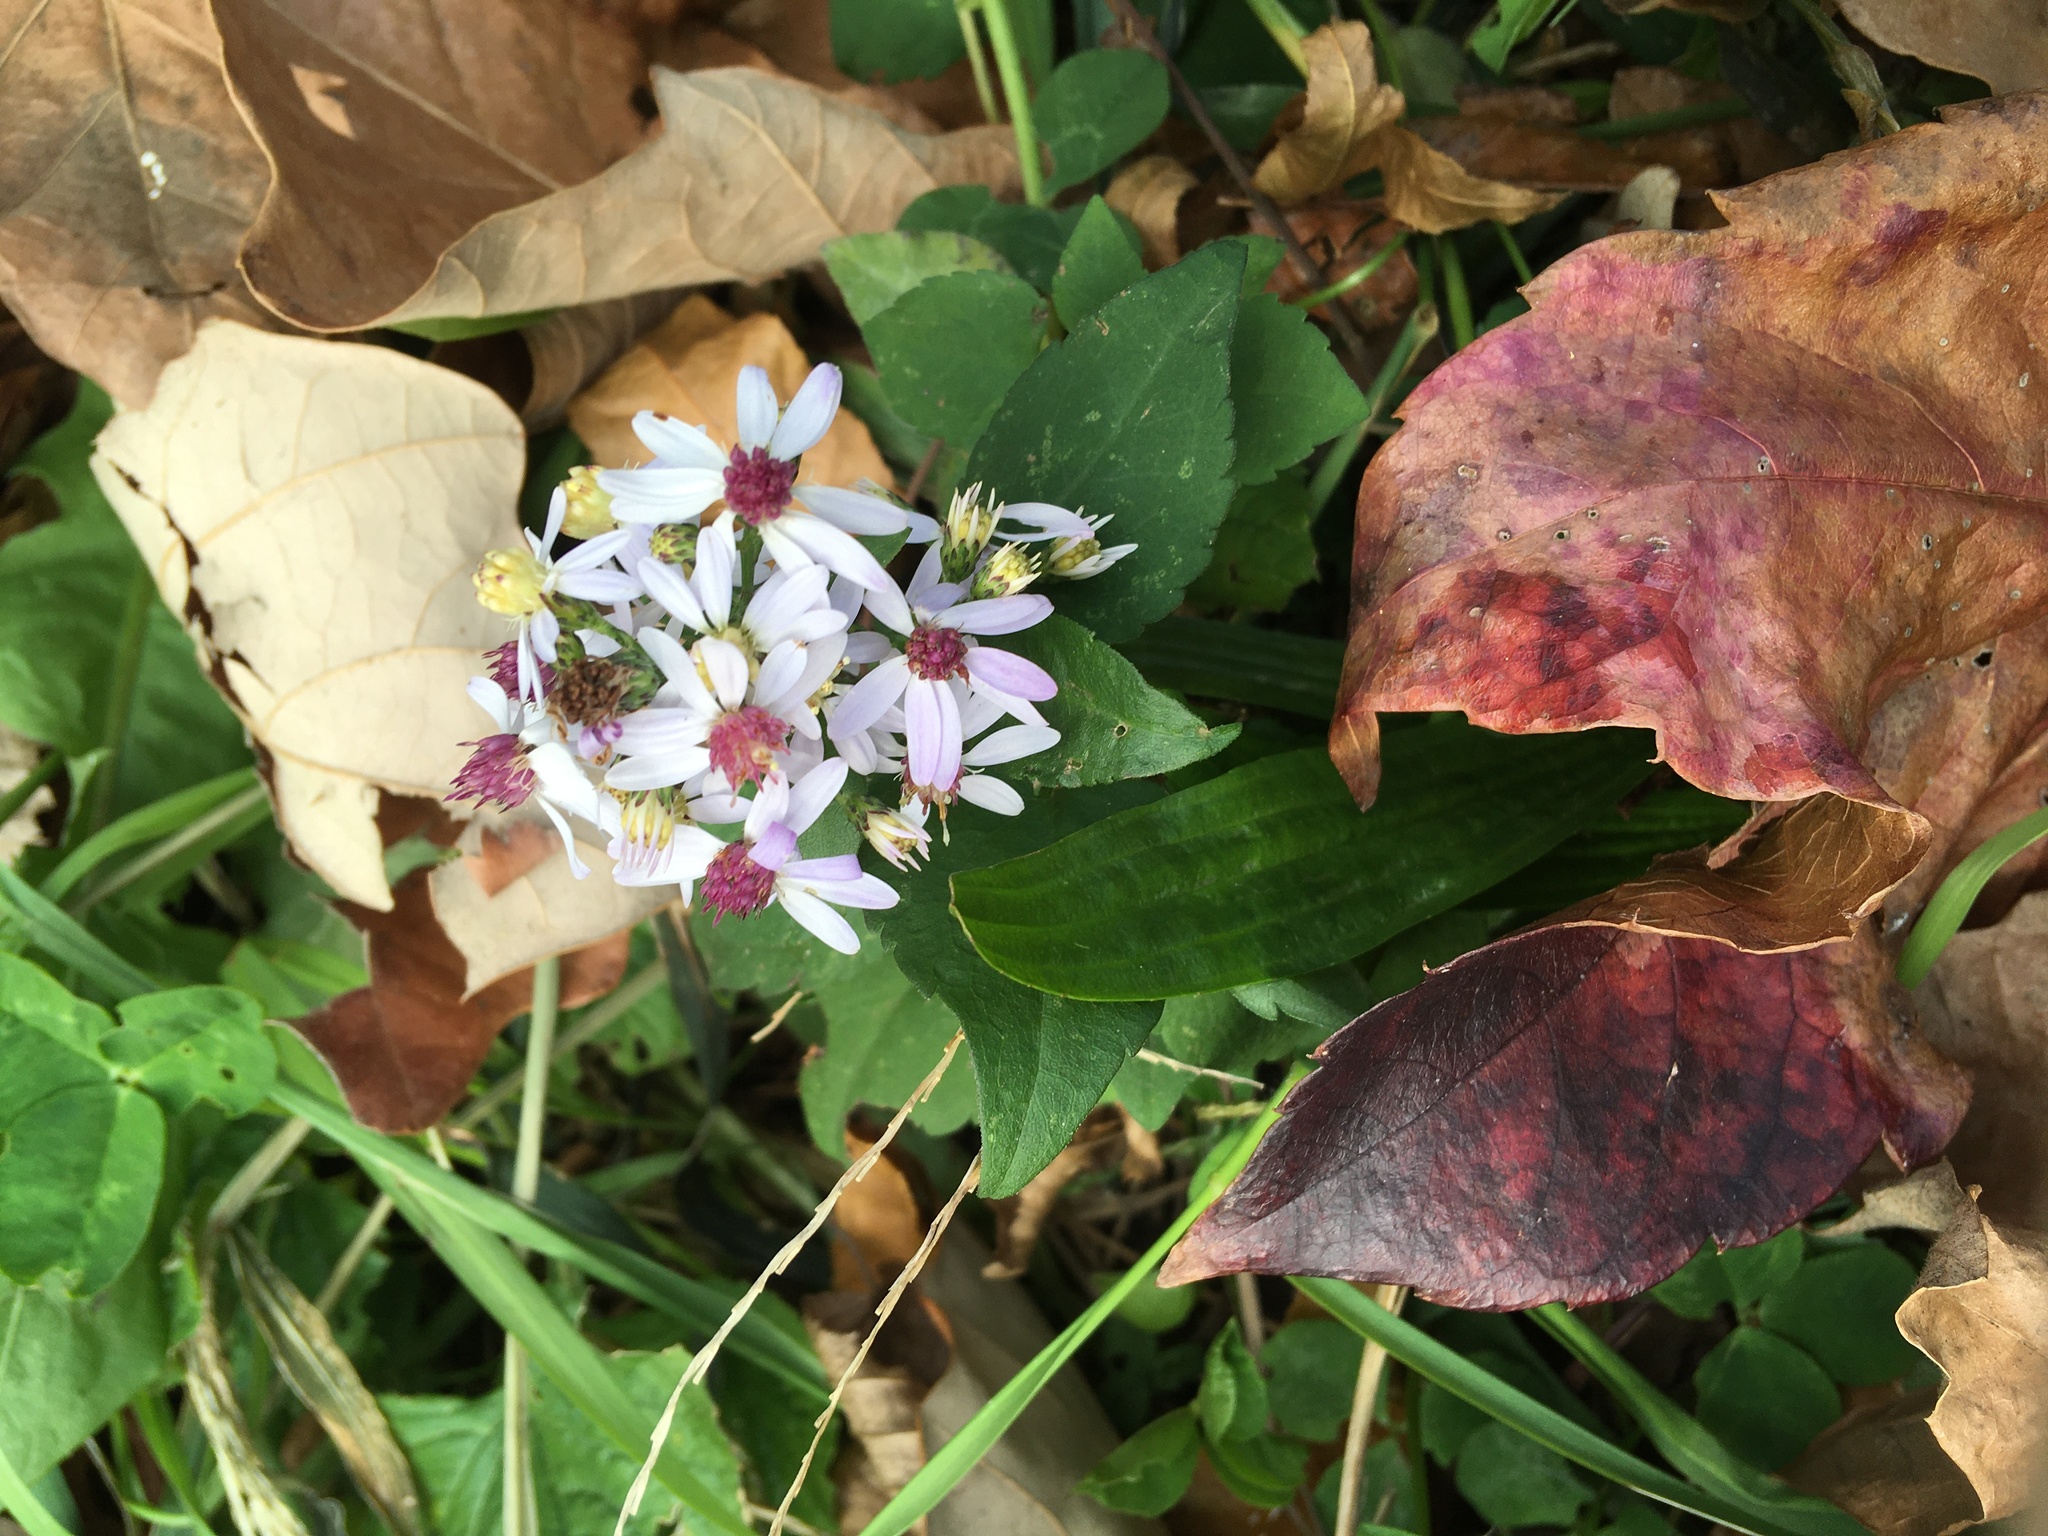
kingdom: Plantae
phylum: Tracheophyta
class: Magnoliopsida
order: Asterales
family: Asteraceae
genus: Symphyotrichum
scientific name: Symphyotrichum cordifolium
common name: Beeweed
